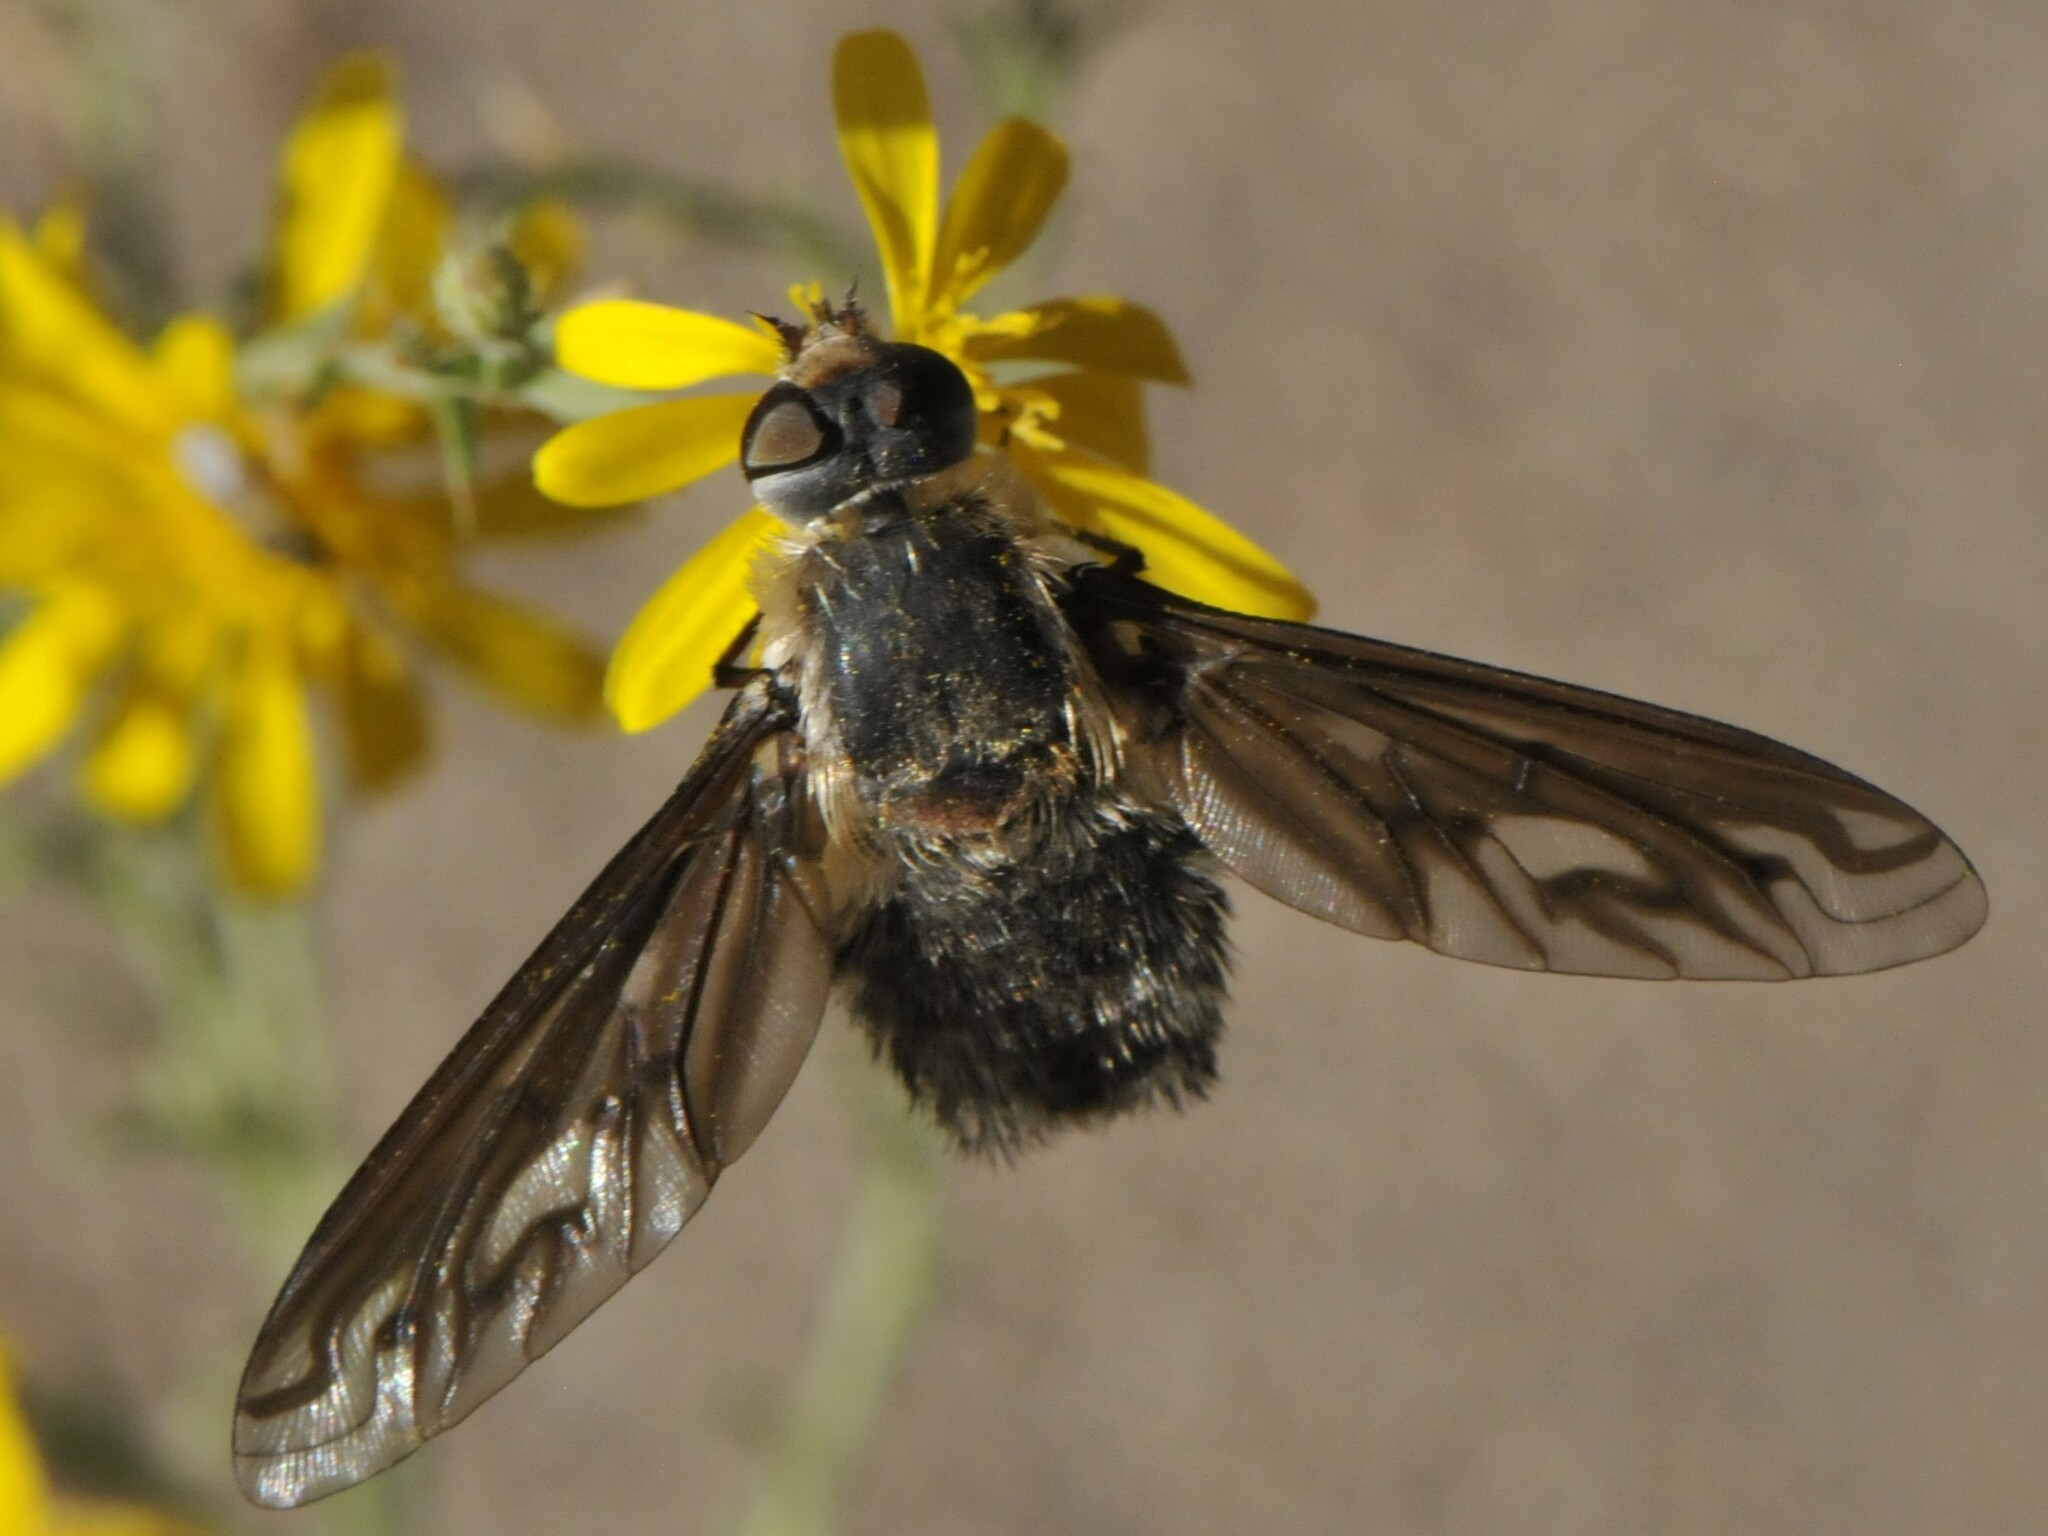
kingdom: Animalia
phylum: Arthropoda
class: Insecta
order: Diptera
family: Bombyliidae
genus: Poecilanthrax
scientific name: Poecilanthrax
